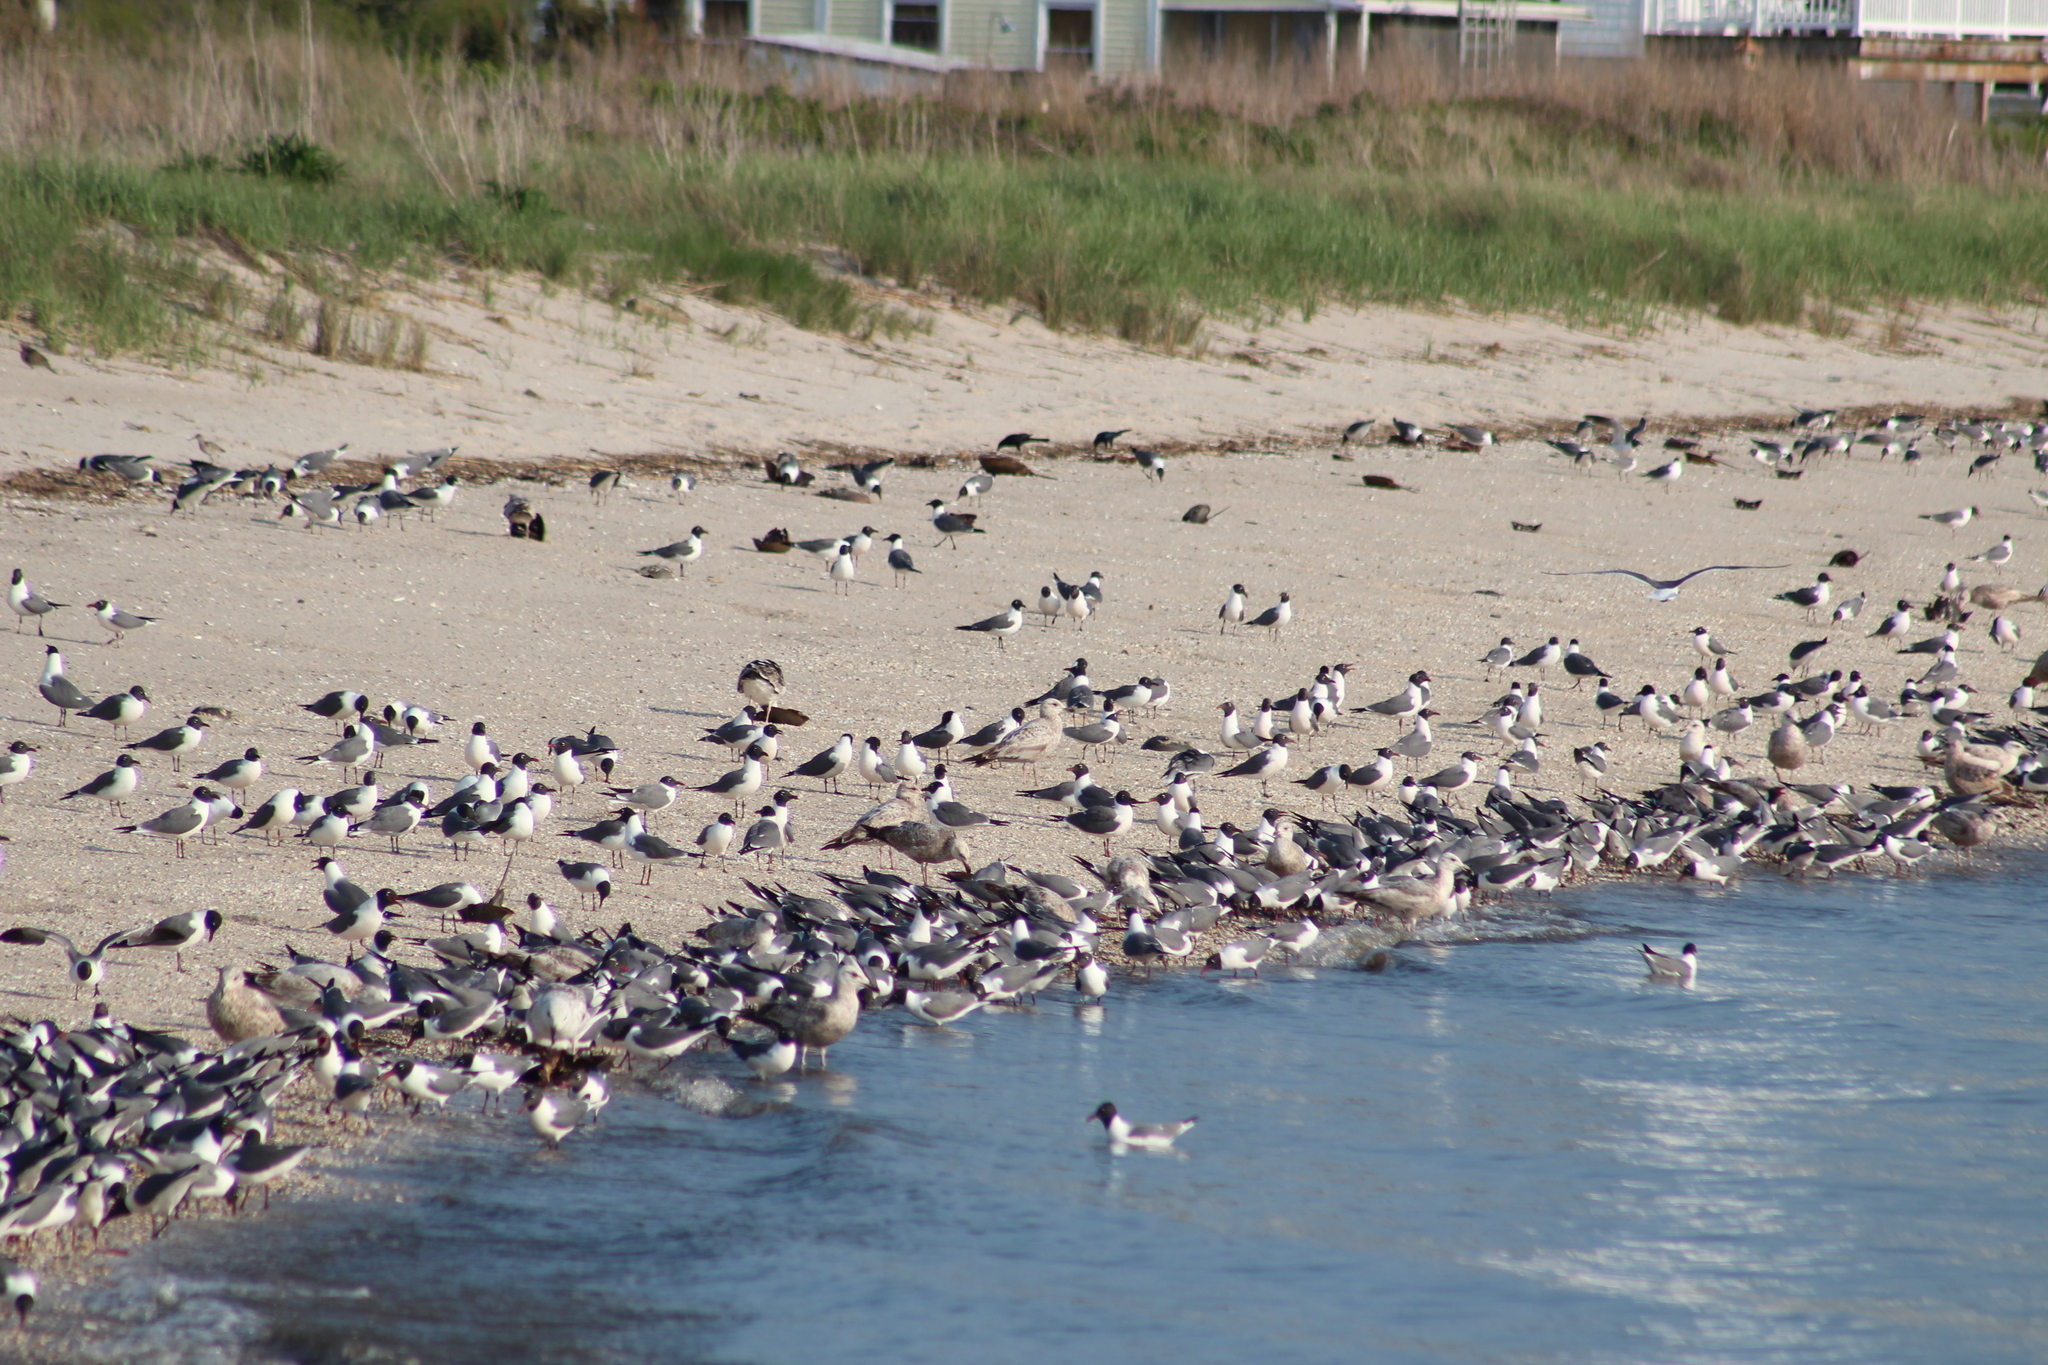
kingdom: Animalia
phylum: Chordata
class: Aves
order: Charadriiformes
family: Laridae
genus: Leucophaeus
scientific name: Leucophaeus atricilla
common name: Laughing gull
